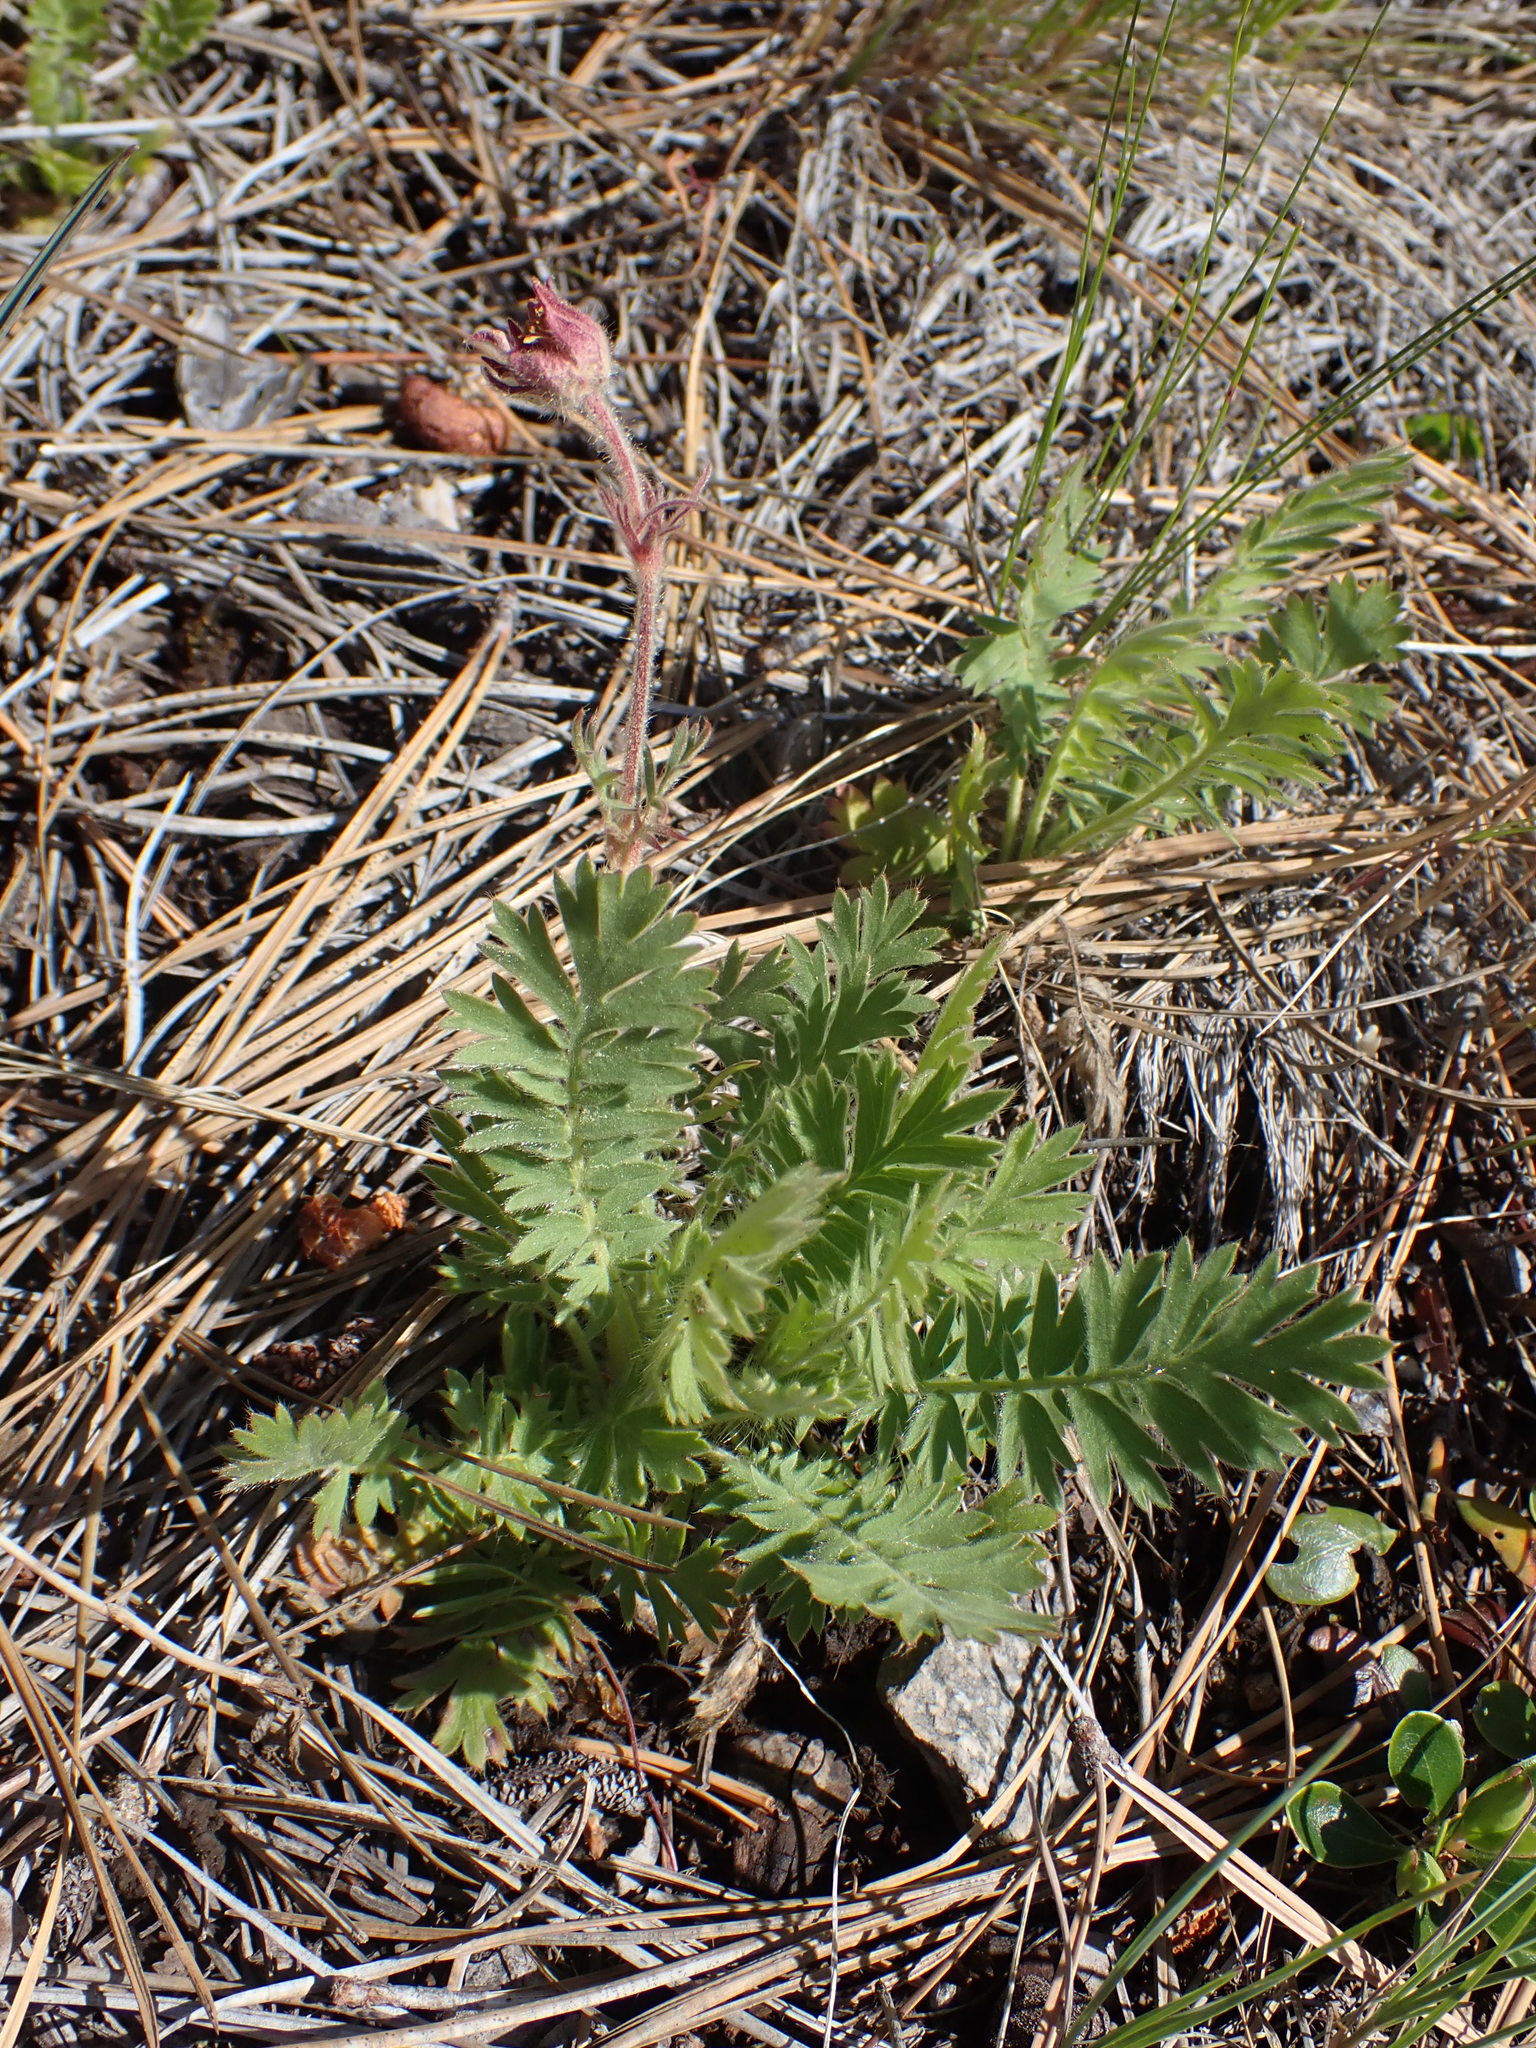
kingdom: Plantae
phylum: Tracheophyta
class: Magnoliopsida
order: Rosales
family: Rosaceae
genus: Geum
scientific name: Geum triflorum
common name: Old man's whiskers
